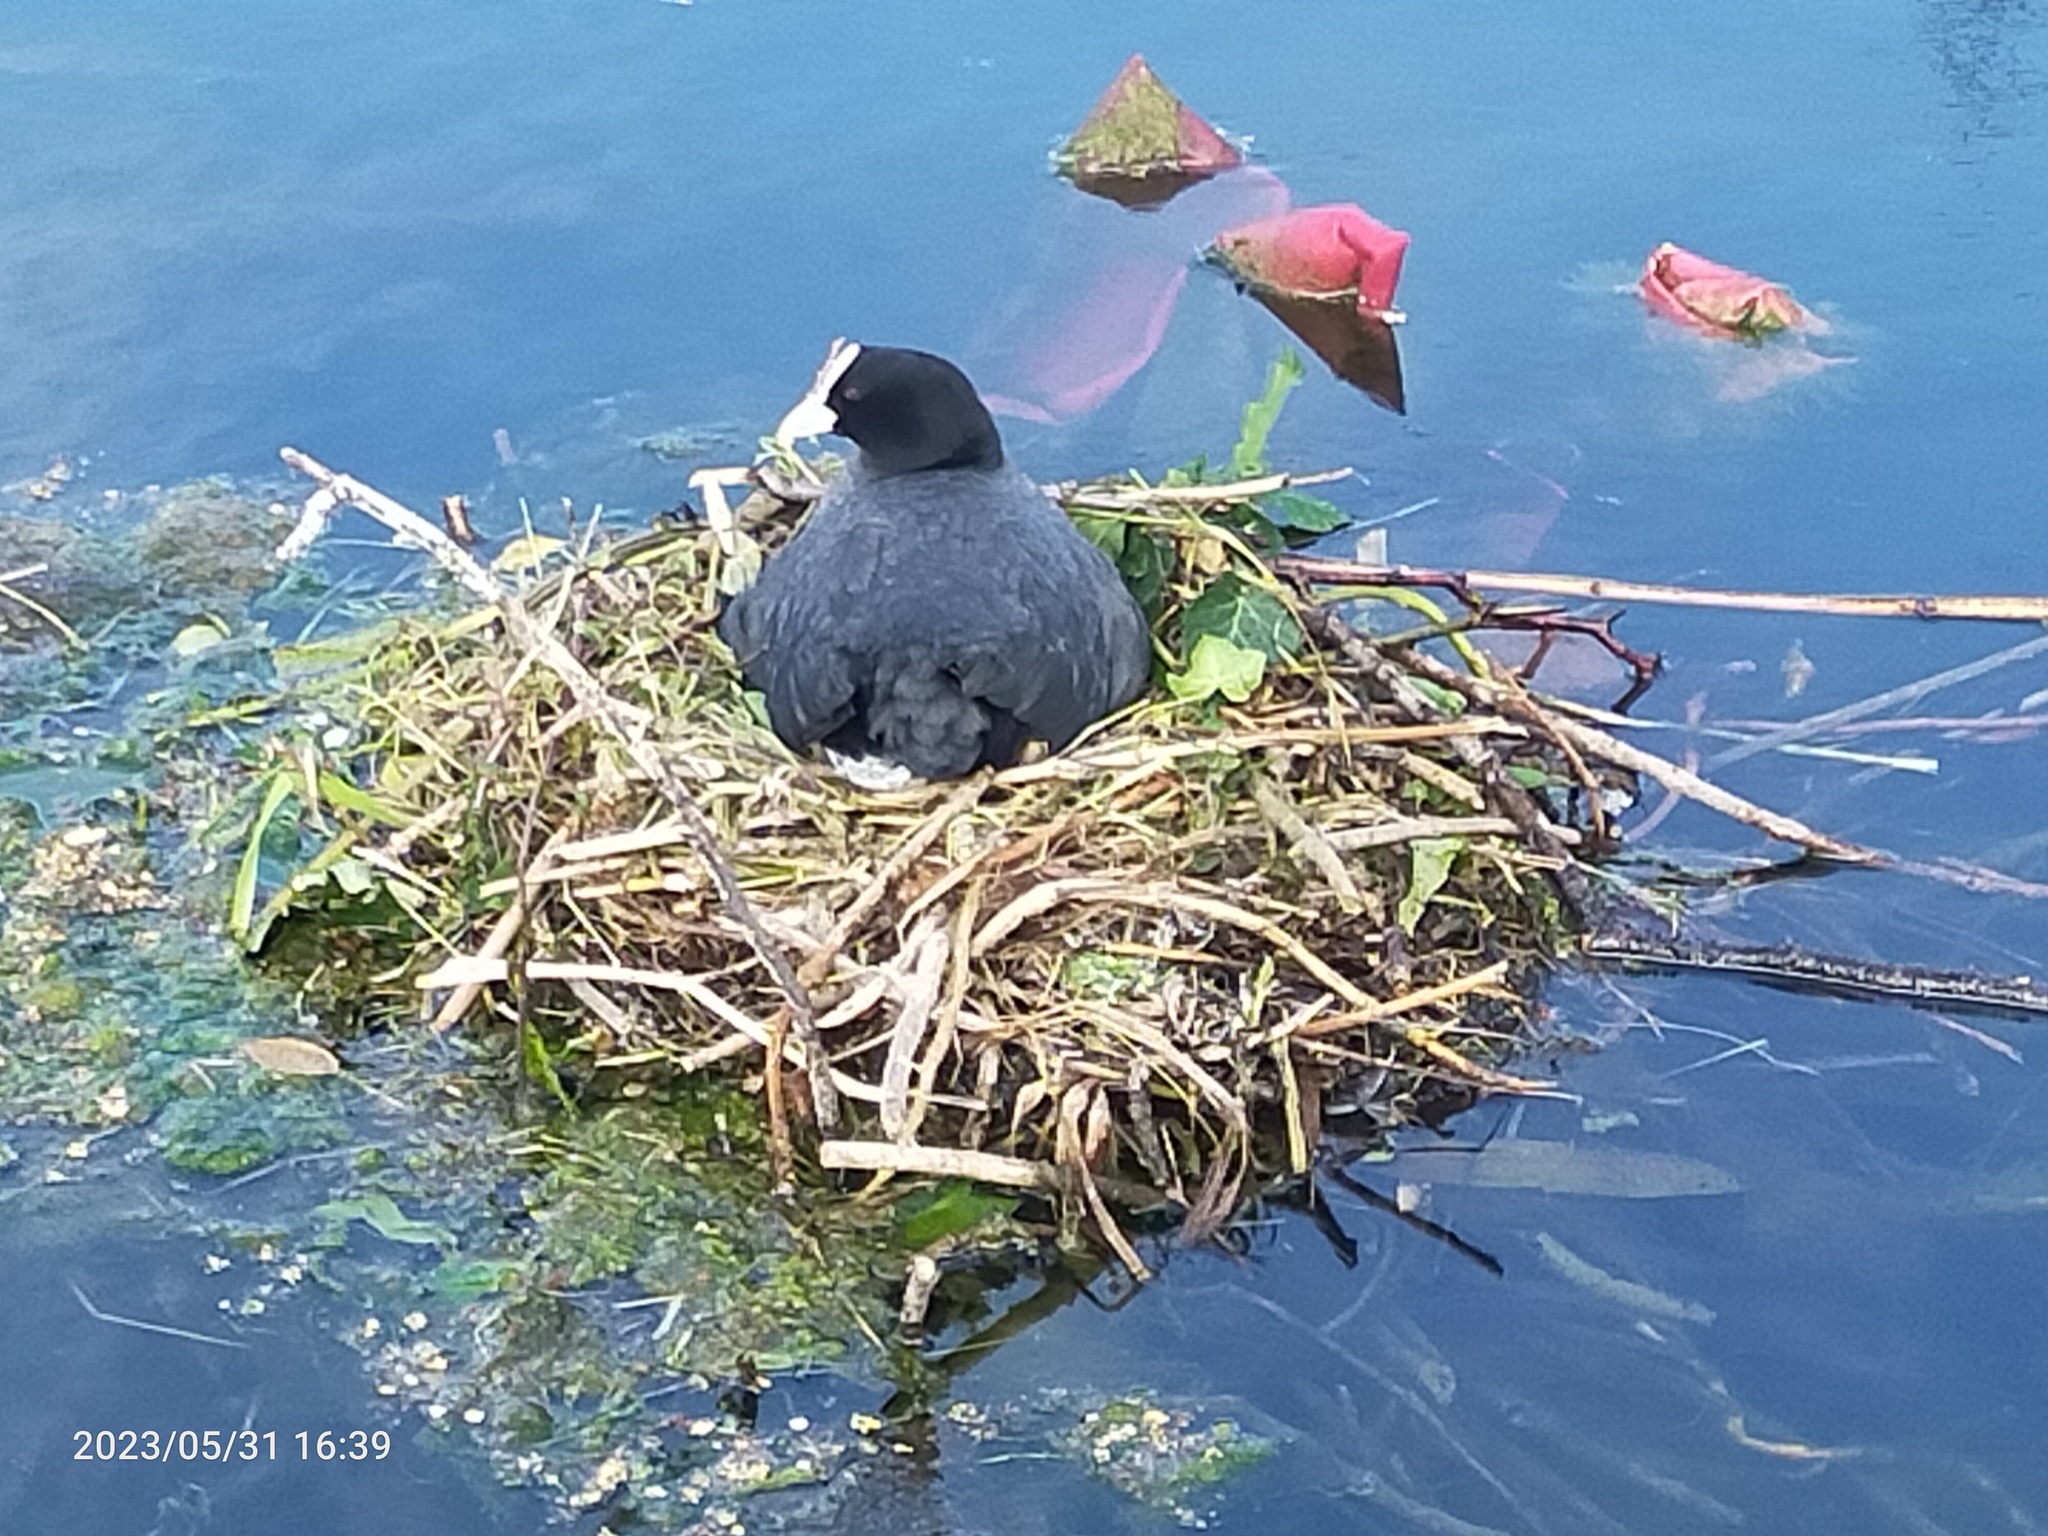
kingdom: Animalia
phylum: Chordata
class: Aves
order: Gruiformes
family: Rallidae
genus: Fulica
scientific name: Fulica atra
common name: Eurasian coot
